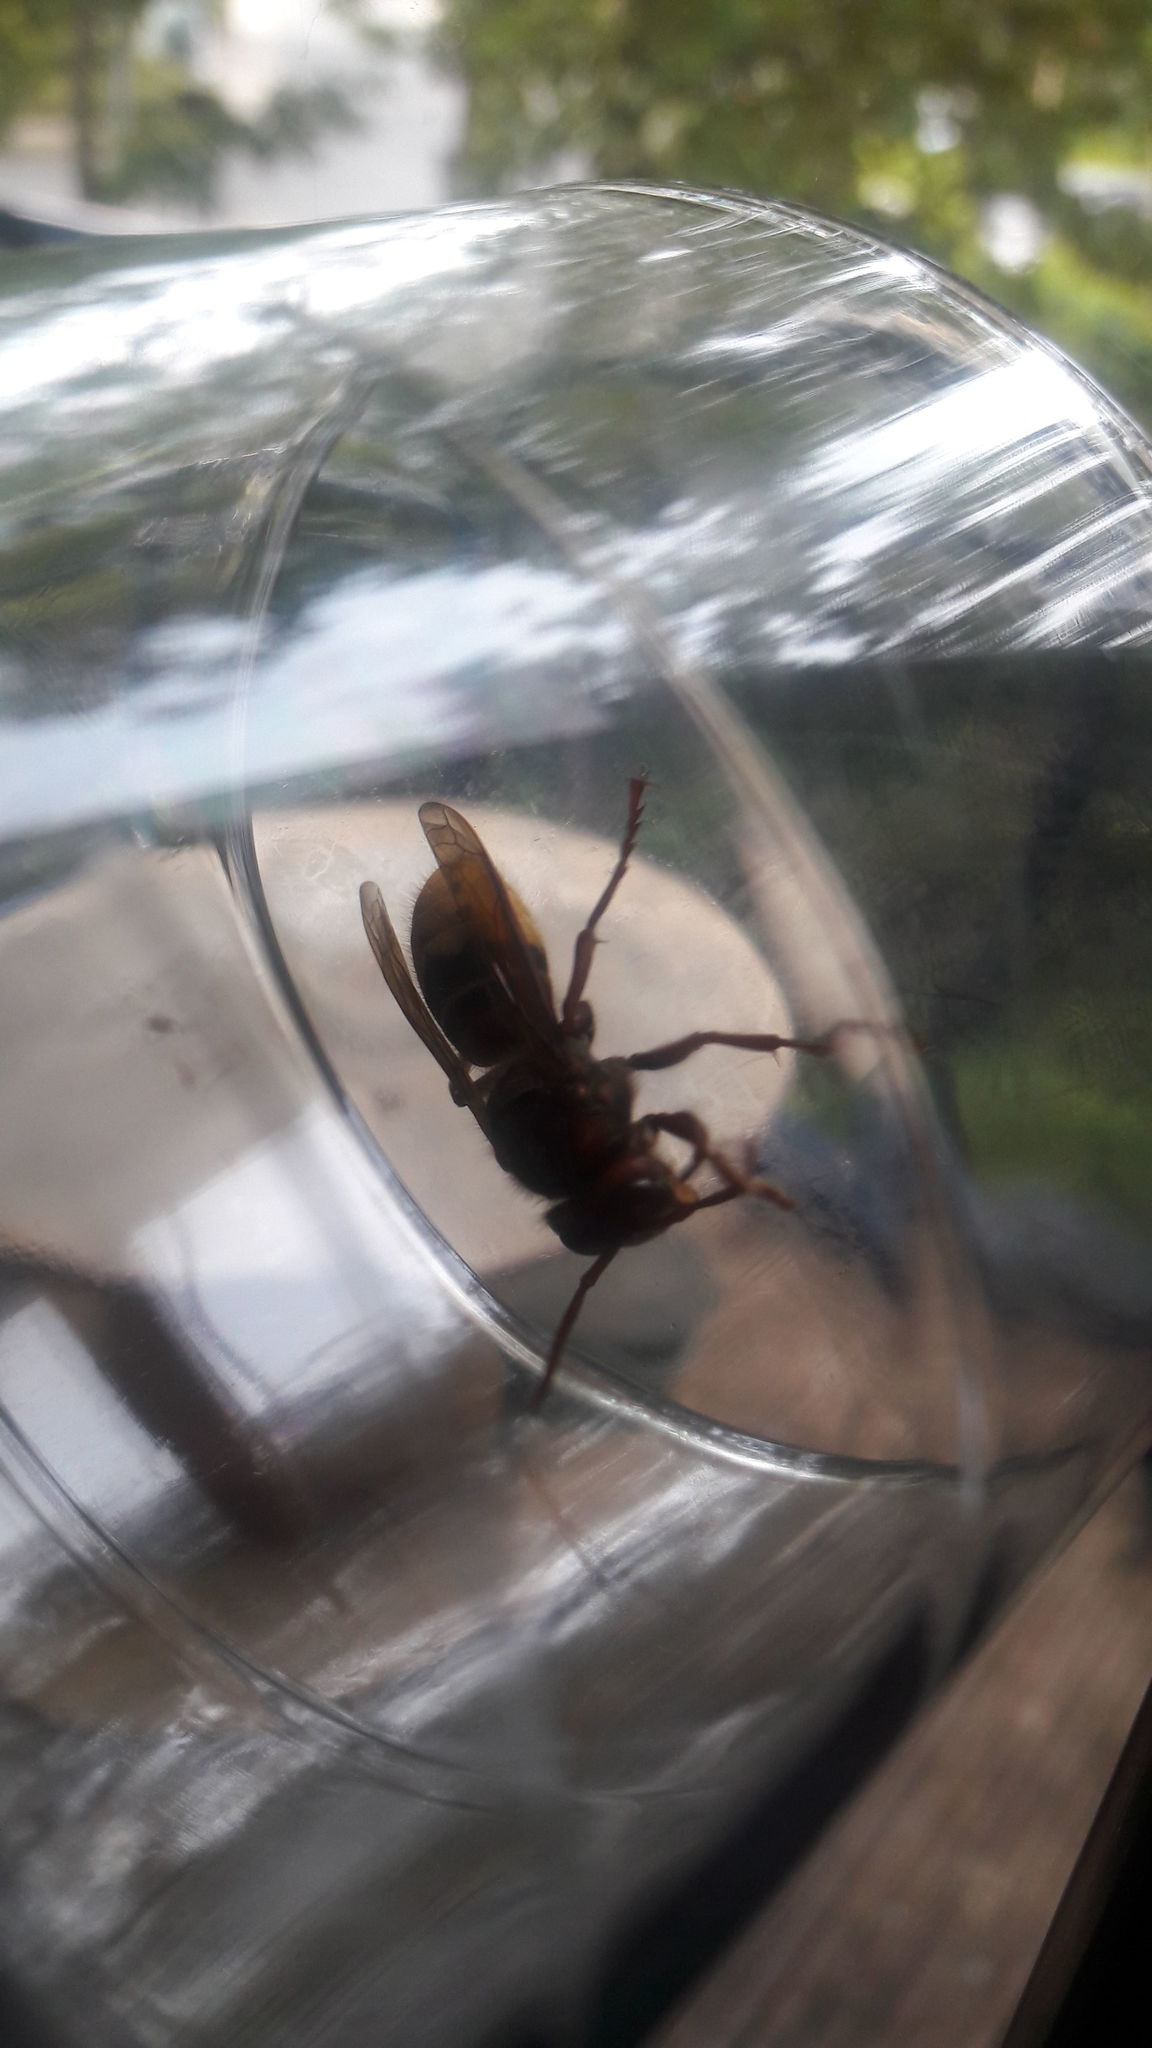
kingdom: Animalia
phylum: Arthropoda
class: Insecta
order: Hymenoptera
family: Vespidae
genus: Vespa
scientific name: Vespa crabro
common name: Hornet
